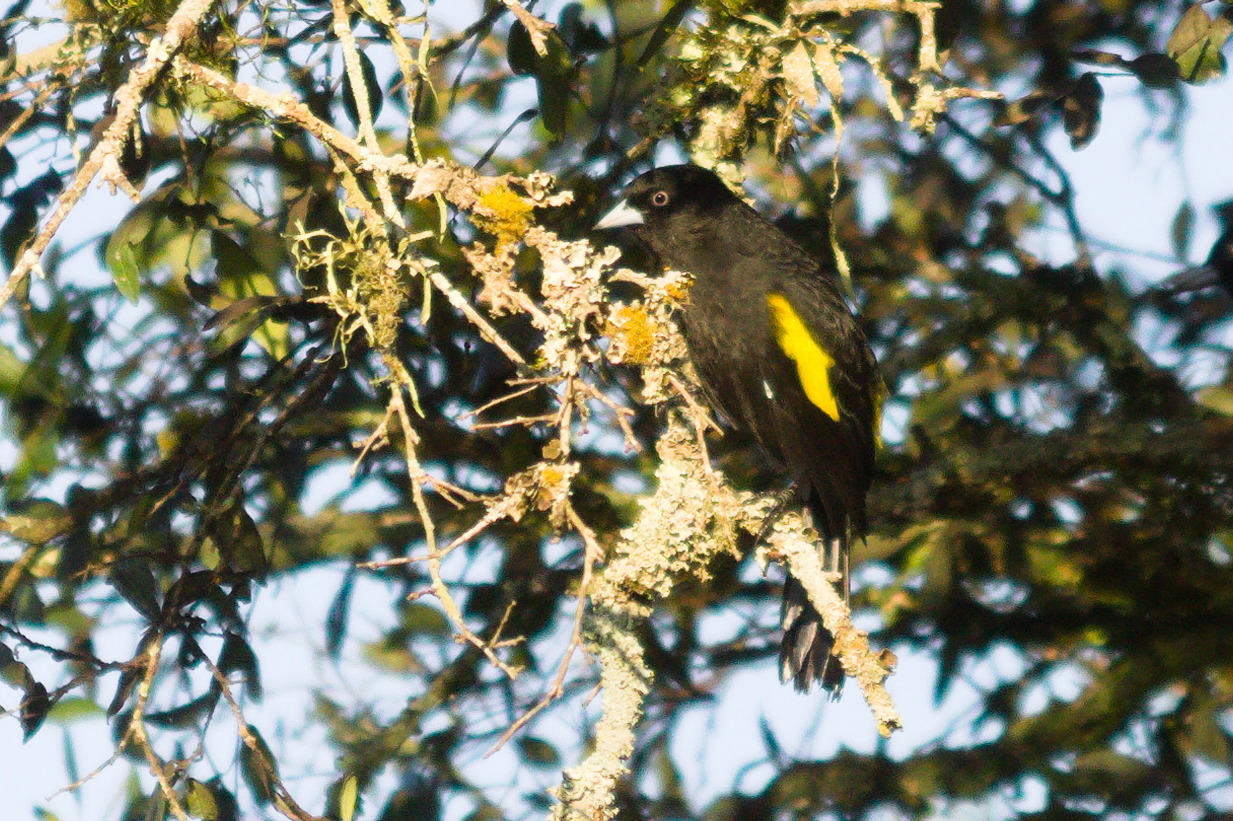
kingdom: Animalia
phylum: Chordata
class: Aves
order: Passeriformes
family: Icteridae
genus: Cacicus
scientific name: Cacicus chrysopterus
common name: Golden-winged cacique
